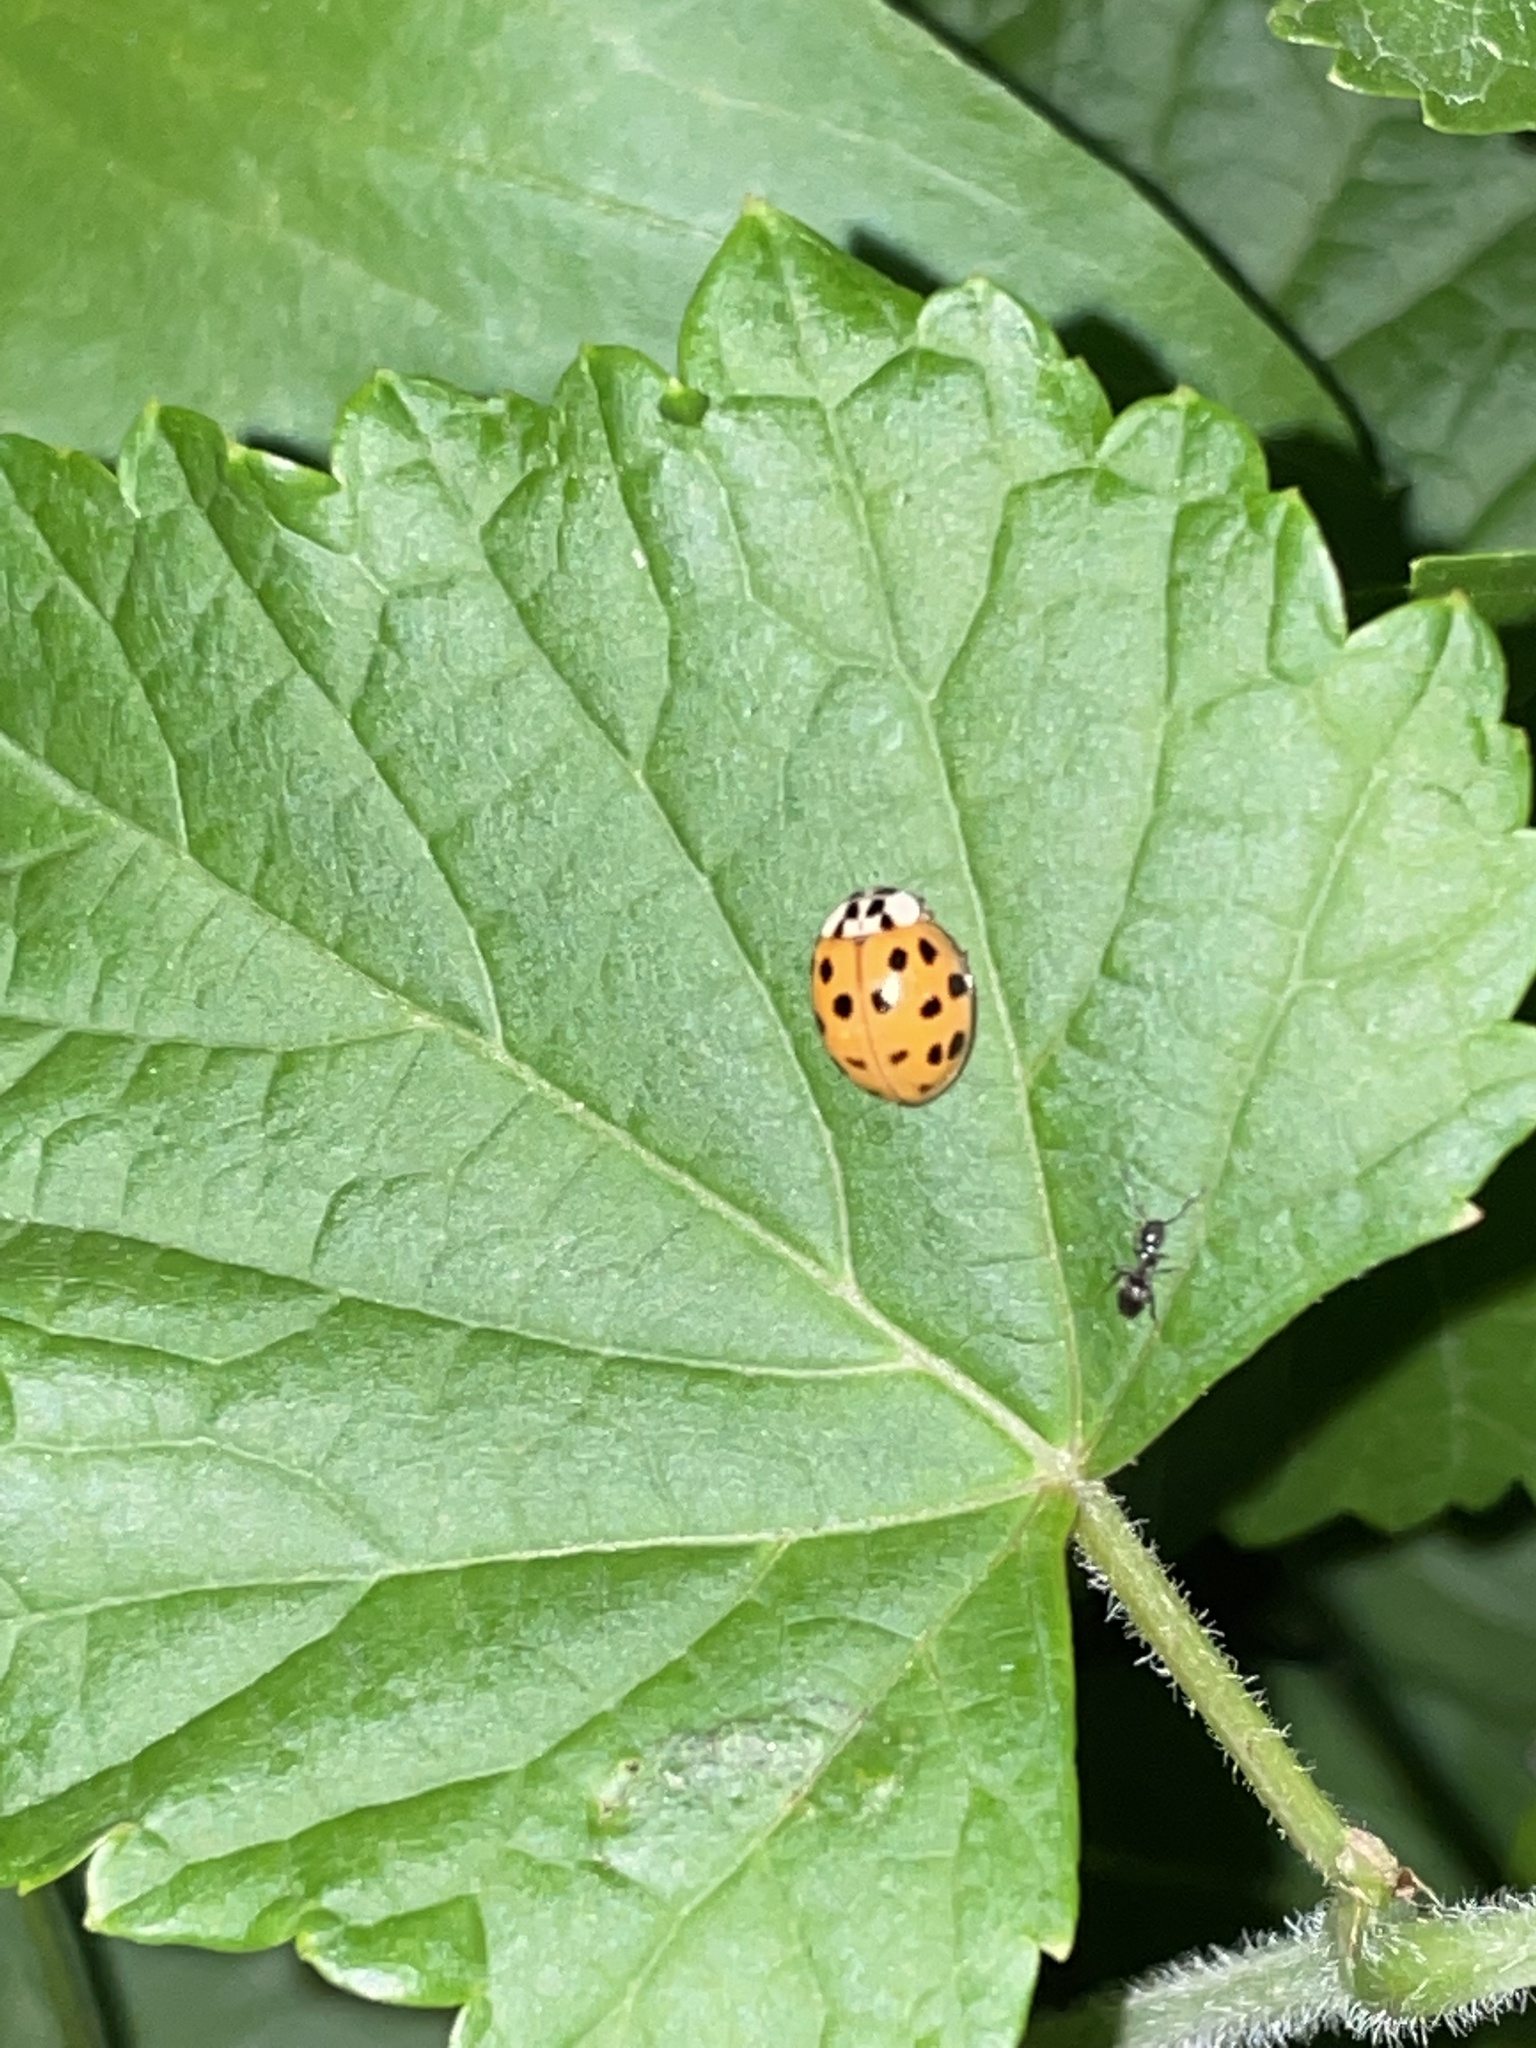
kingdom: Animalia
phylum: Arthropoda
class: Insecta
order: Coleoptera
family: Coccinellidae
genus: Harmonia
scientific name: Harmonia axyridis
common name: Harlequin ladybird
